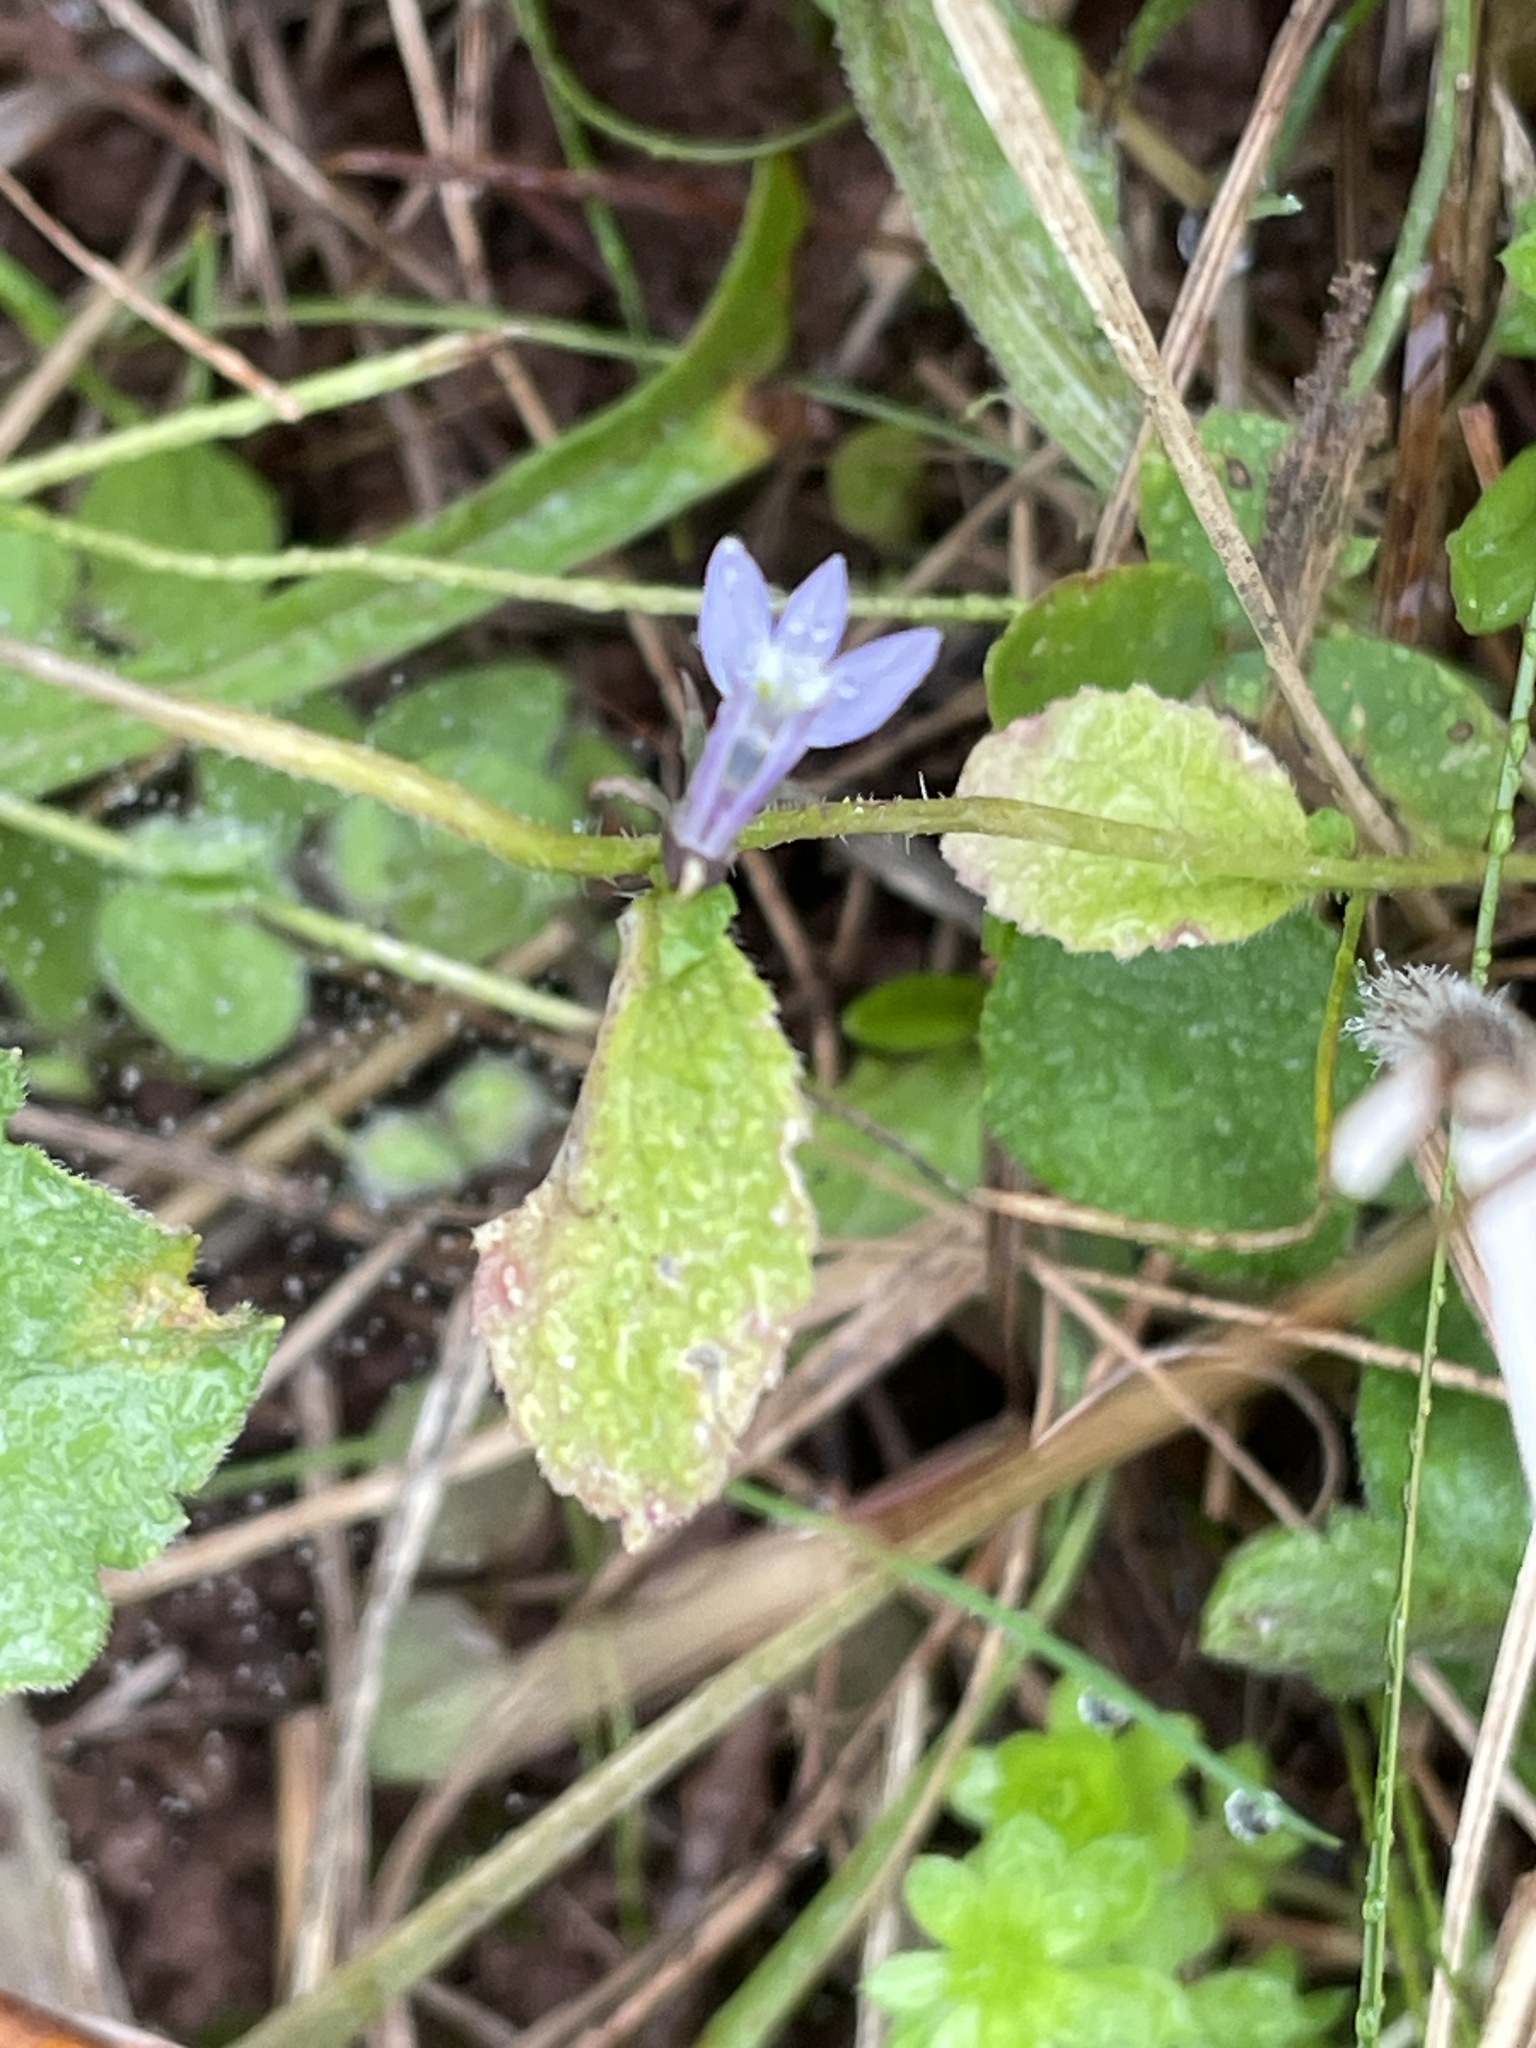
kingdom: Plantae
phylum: Tracheophyta
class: Magnoliopsida
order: Asterales
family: Campanulaceae
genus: Lobelia
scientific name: Lobelia inflata
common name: Indian tobacco
